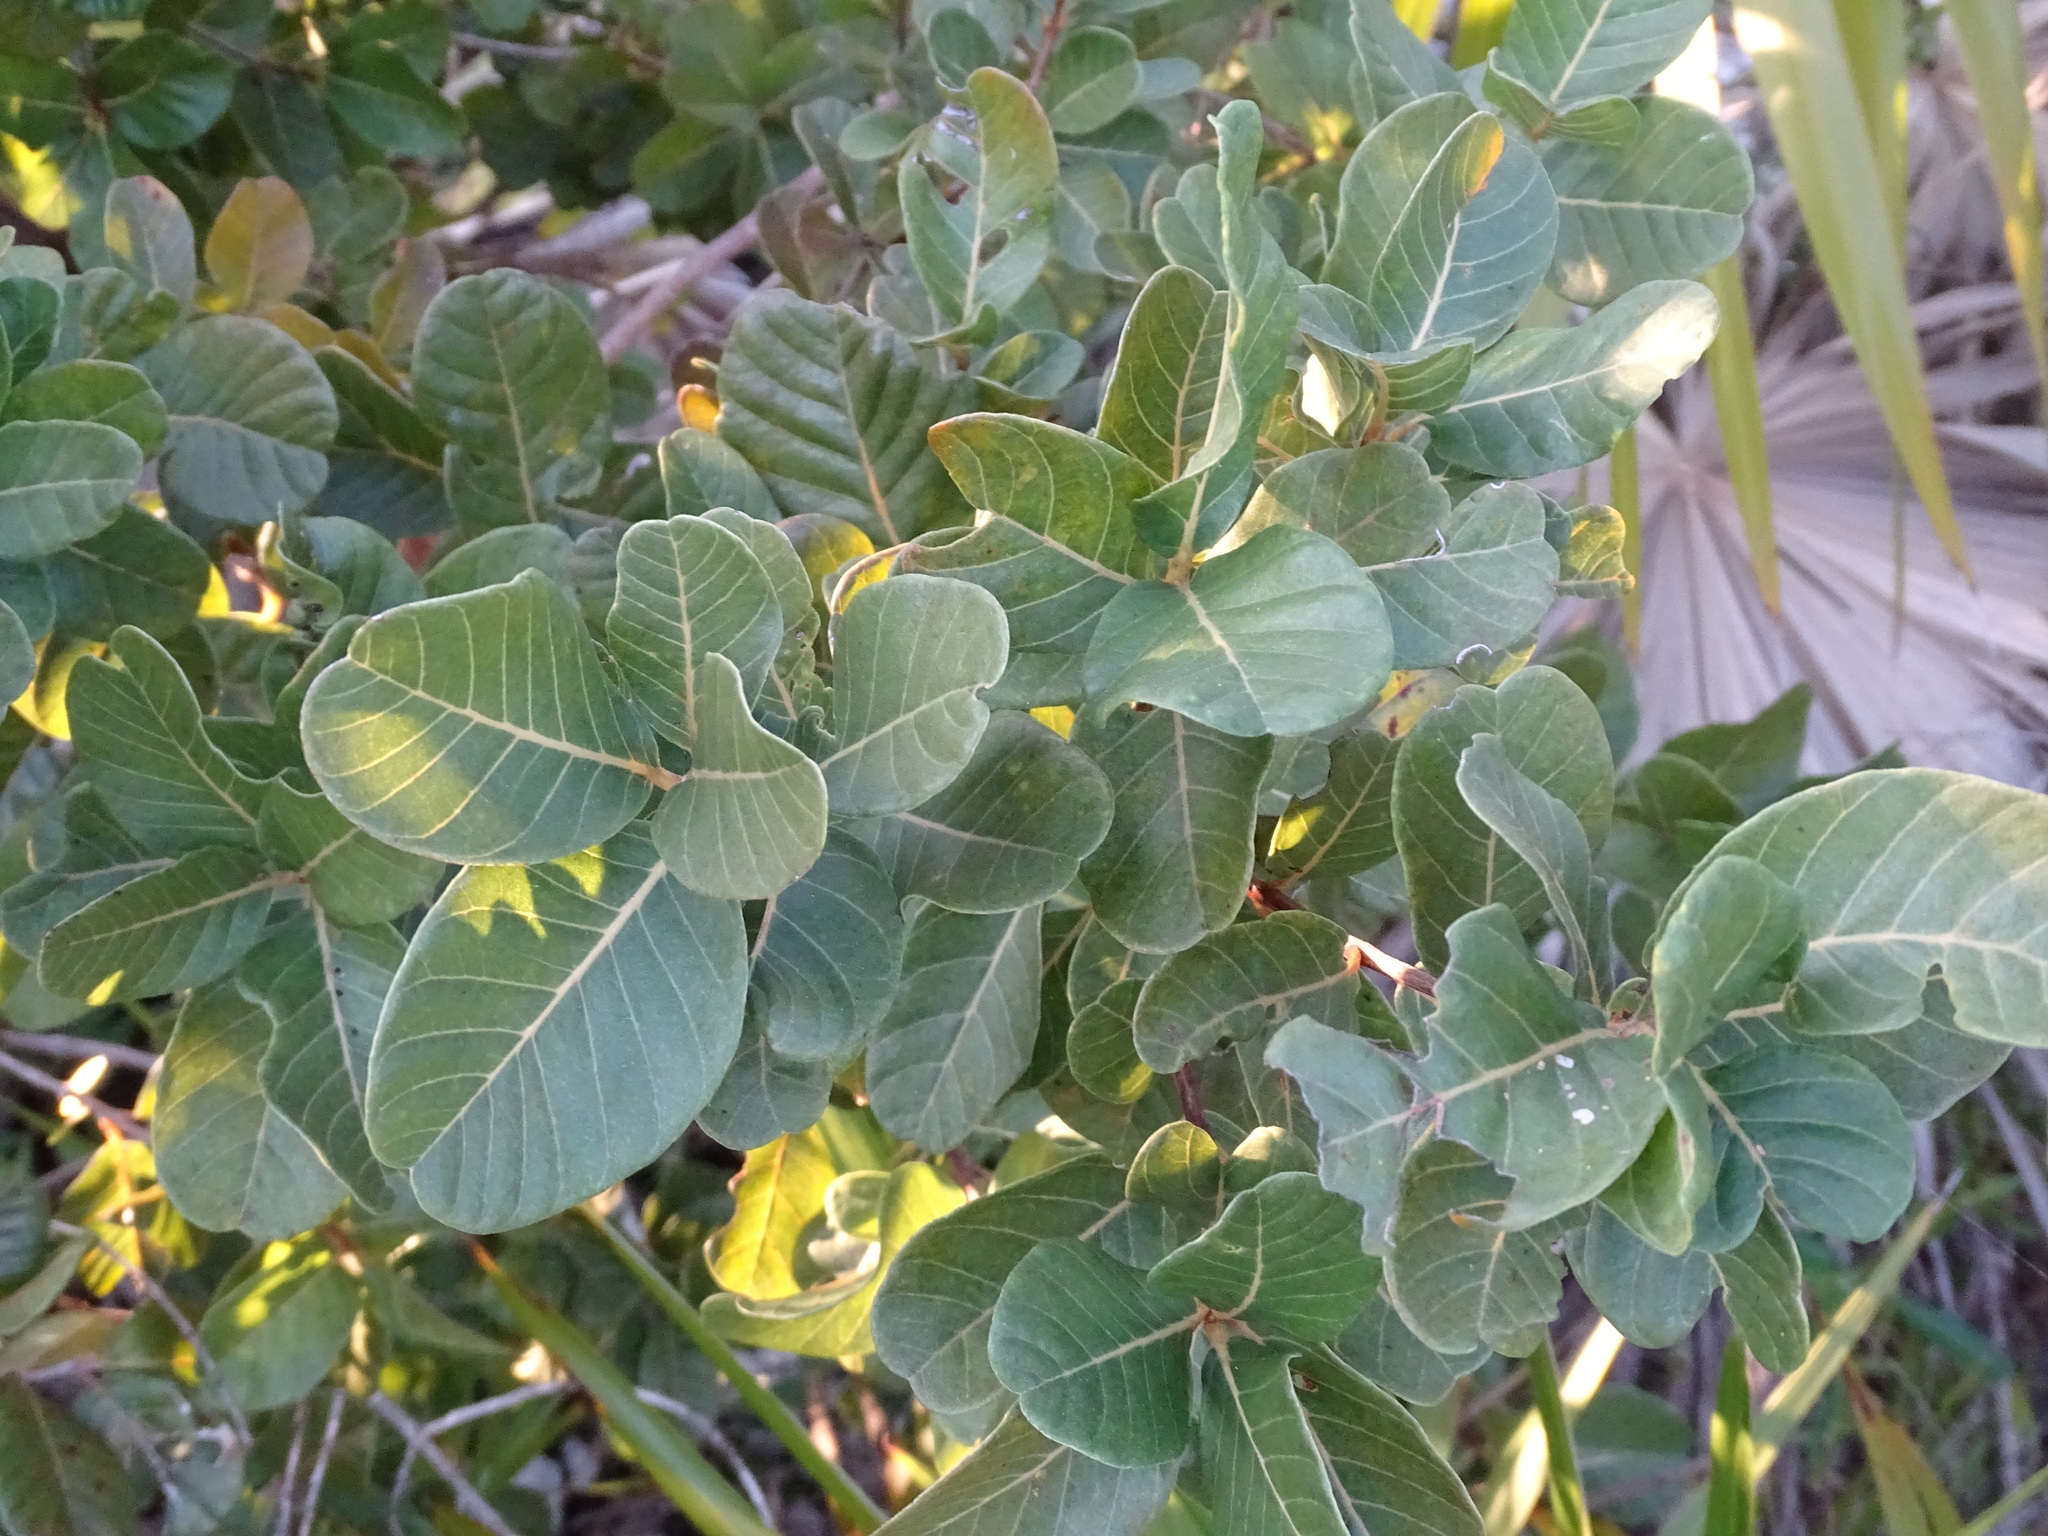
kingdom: Plantae
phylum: Tracheophyta
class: Magnoliopsida
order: Caryophyllales
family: Nyctaginaceae
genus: Pisonia
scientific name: Pisonia rotundata
